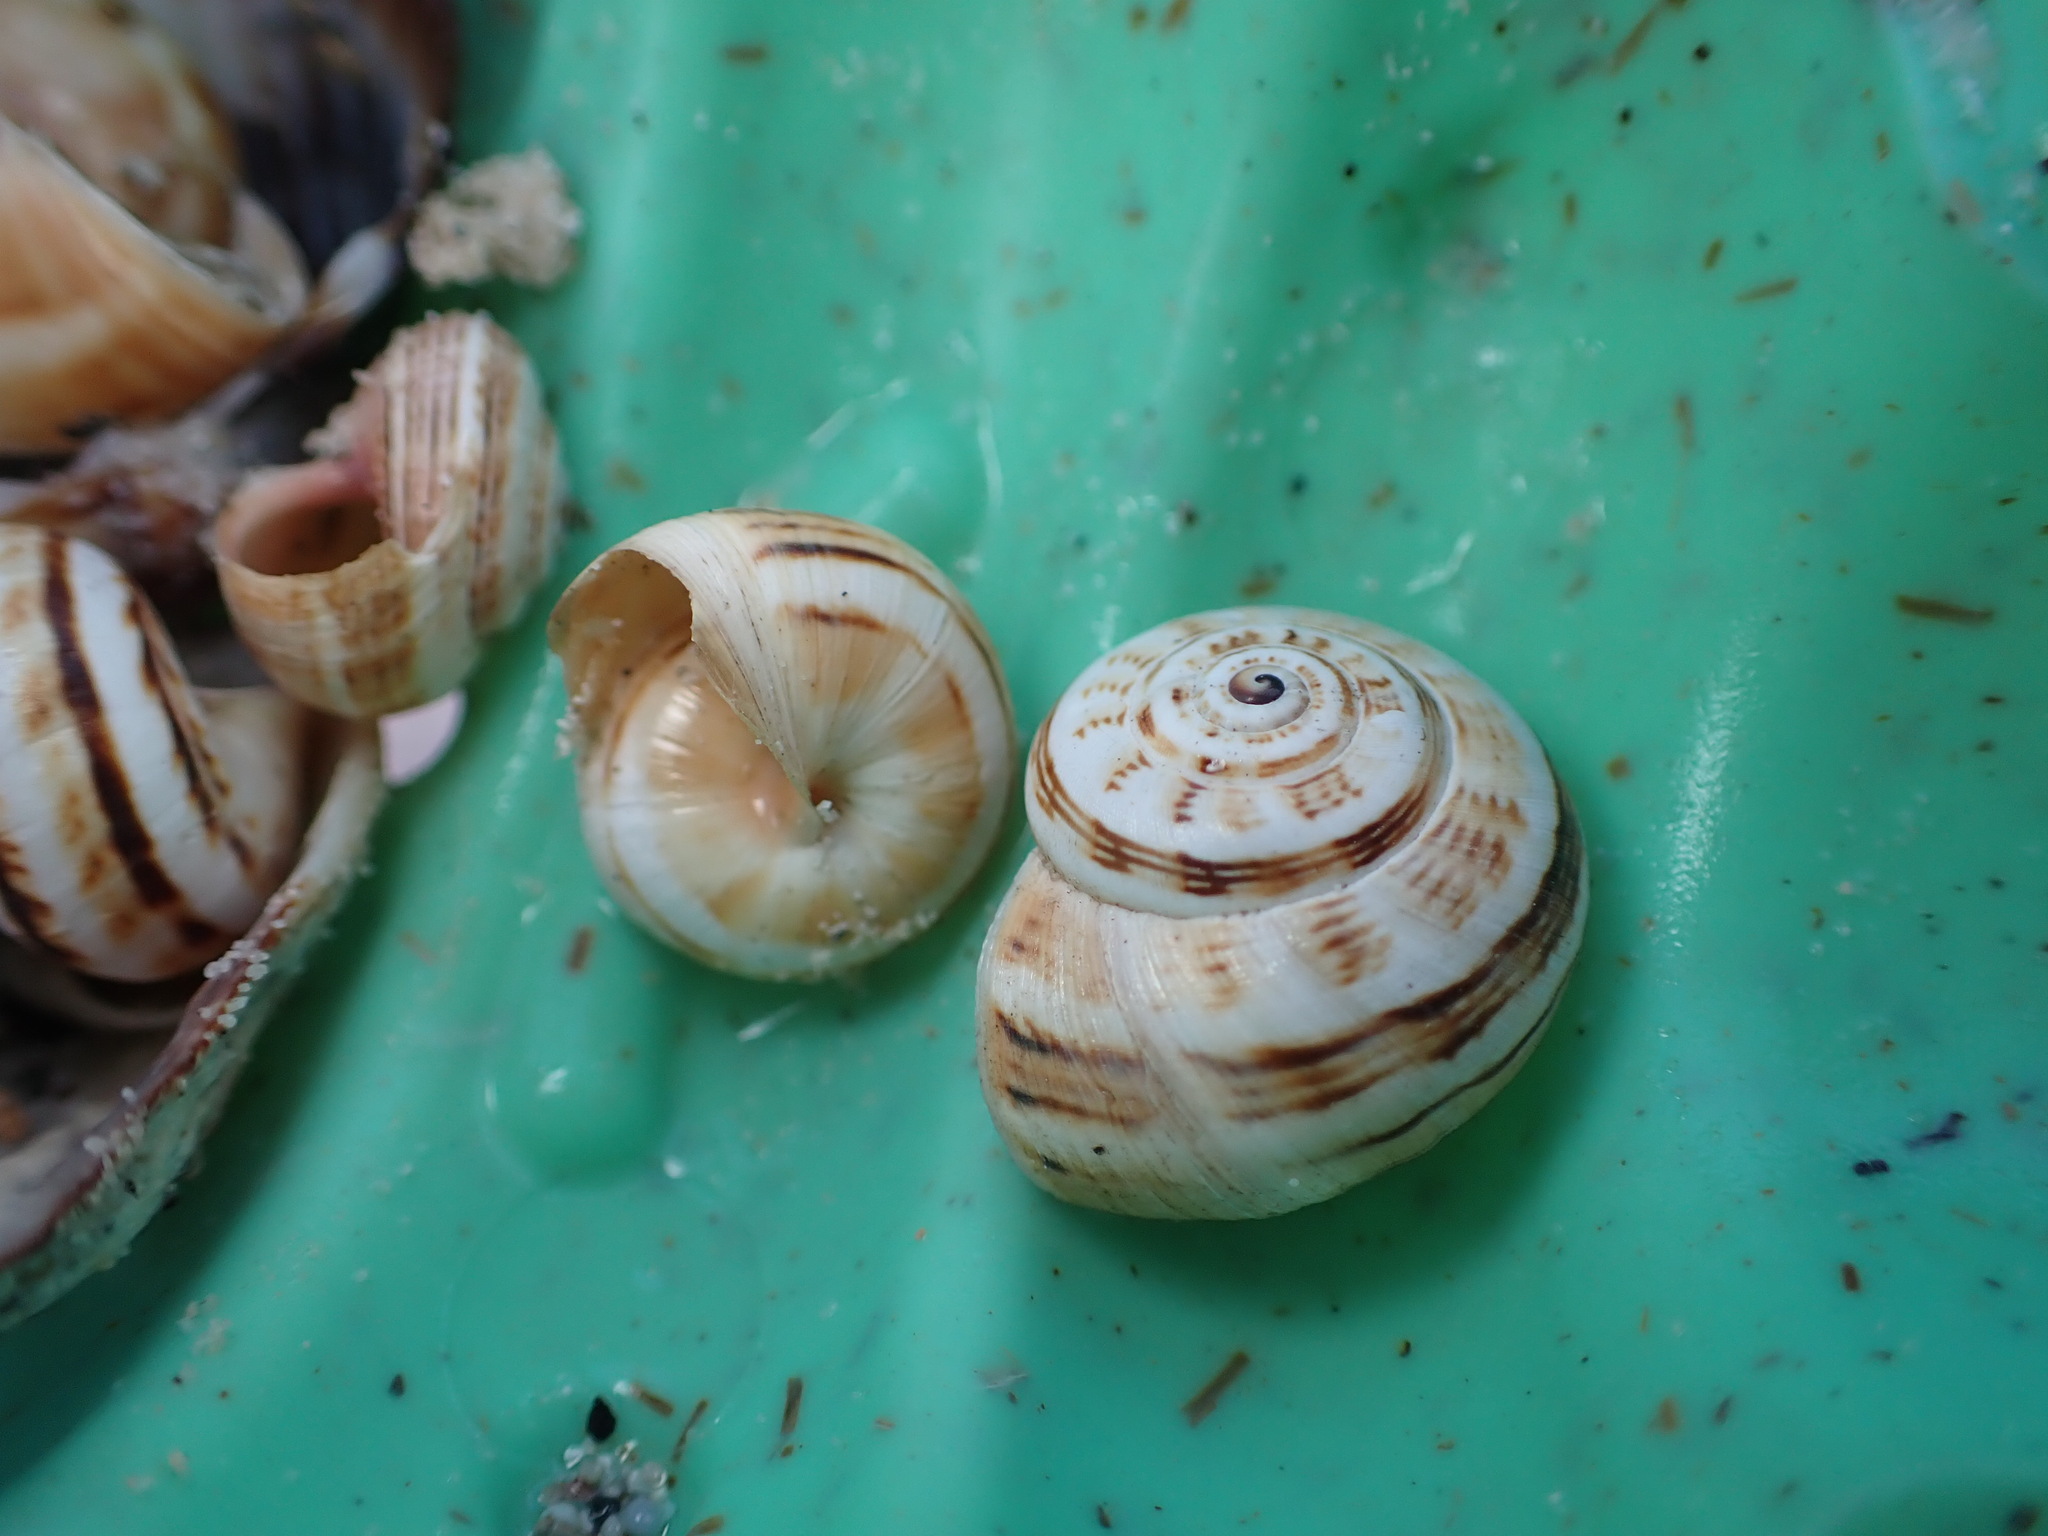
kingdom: Animalia
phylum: Mollusca
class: Gastropoda
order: Stylommatophora
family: Helicidae
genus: Theba
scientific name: Theba pisana
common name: White snail
